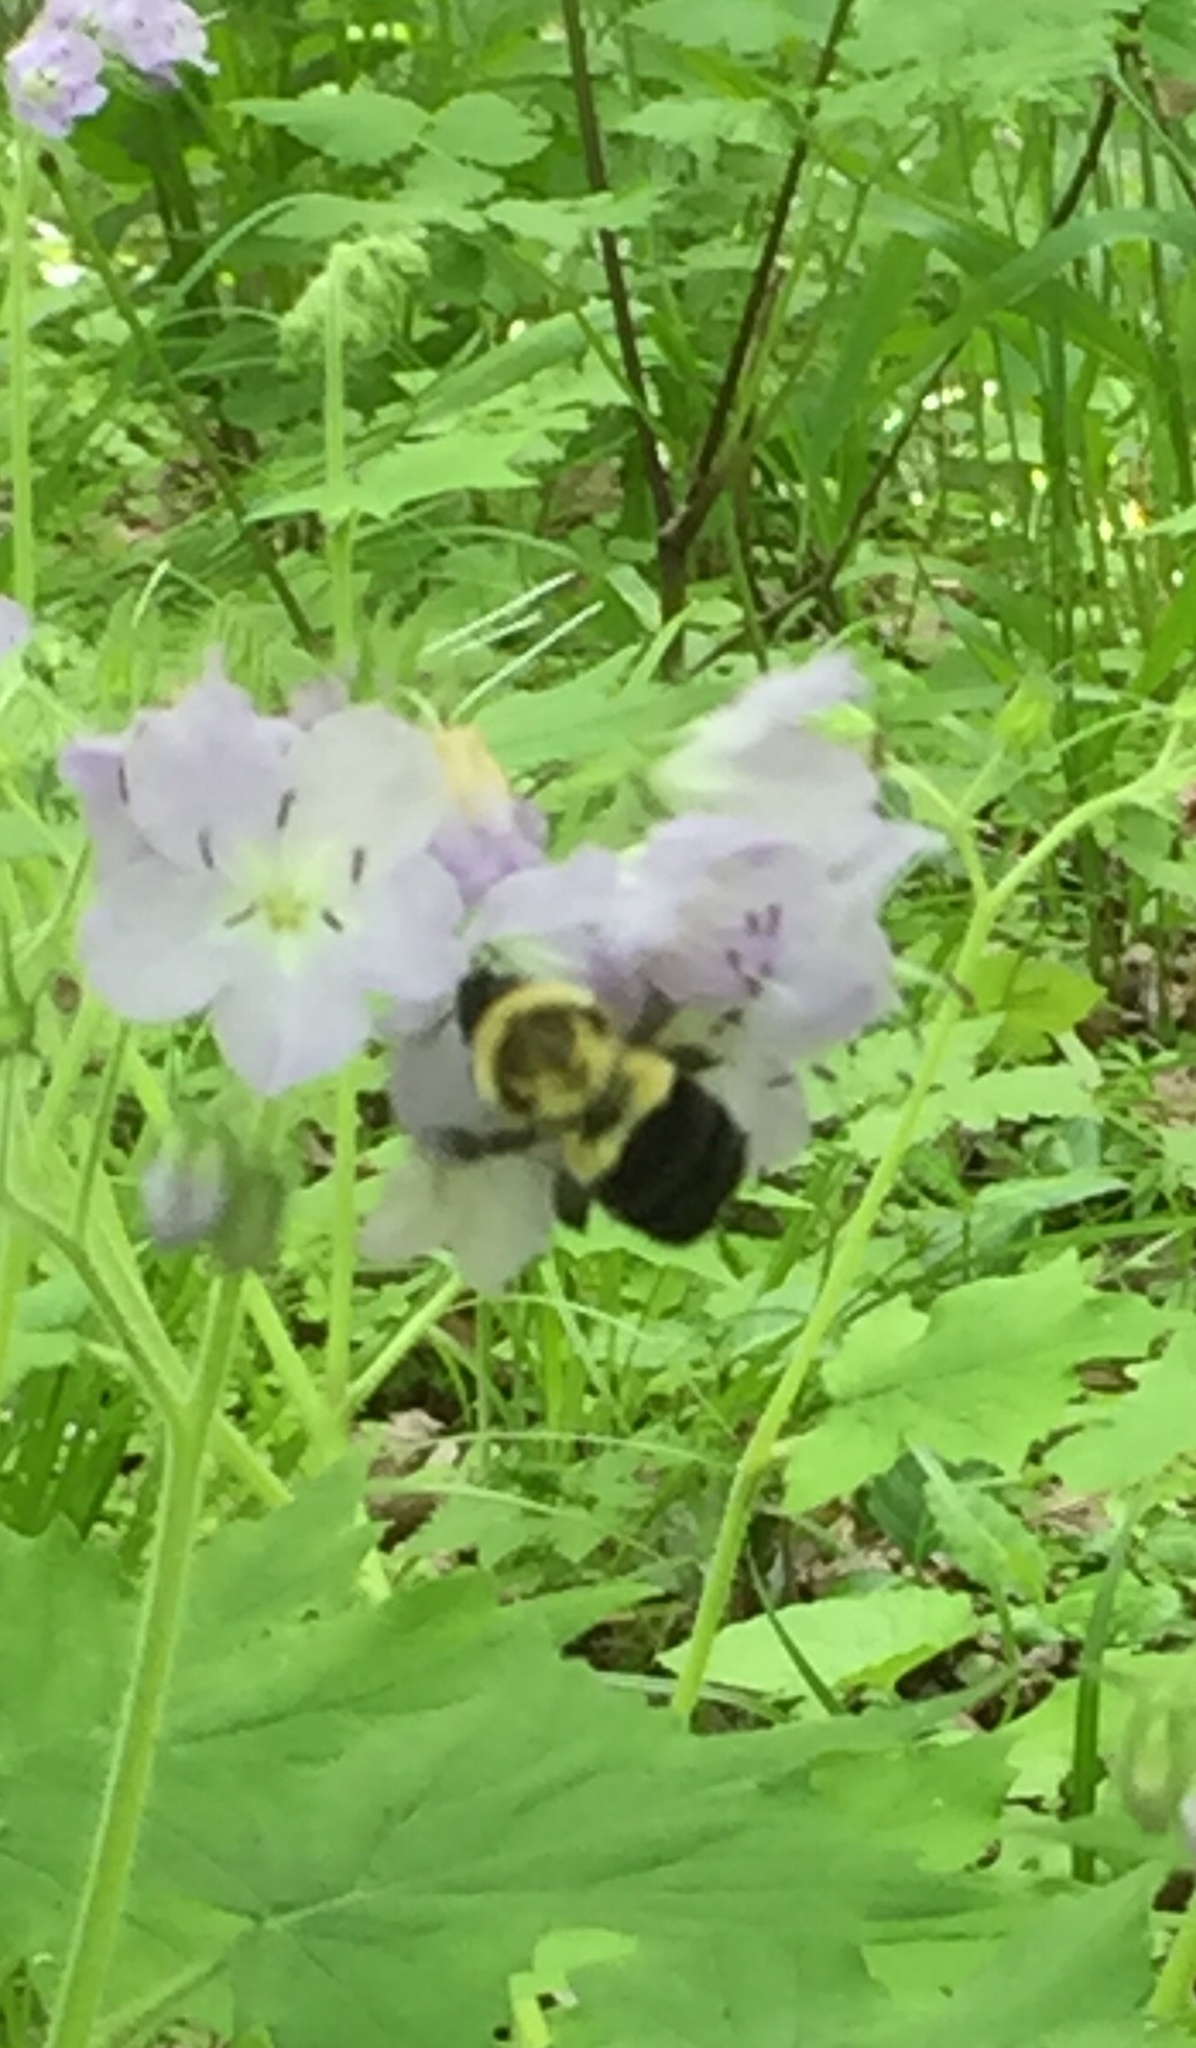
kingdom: Animalia
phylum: Arthropoda
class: Insecta
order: Hymenoptera
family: Apidae
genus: Bombus
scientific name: Bombus impatiens
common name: Common eastern bumble bee
